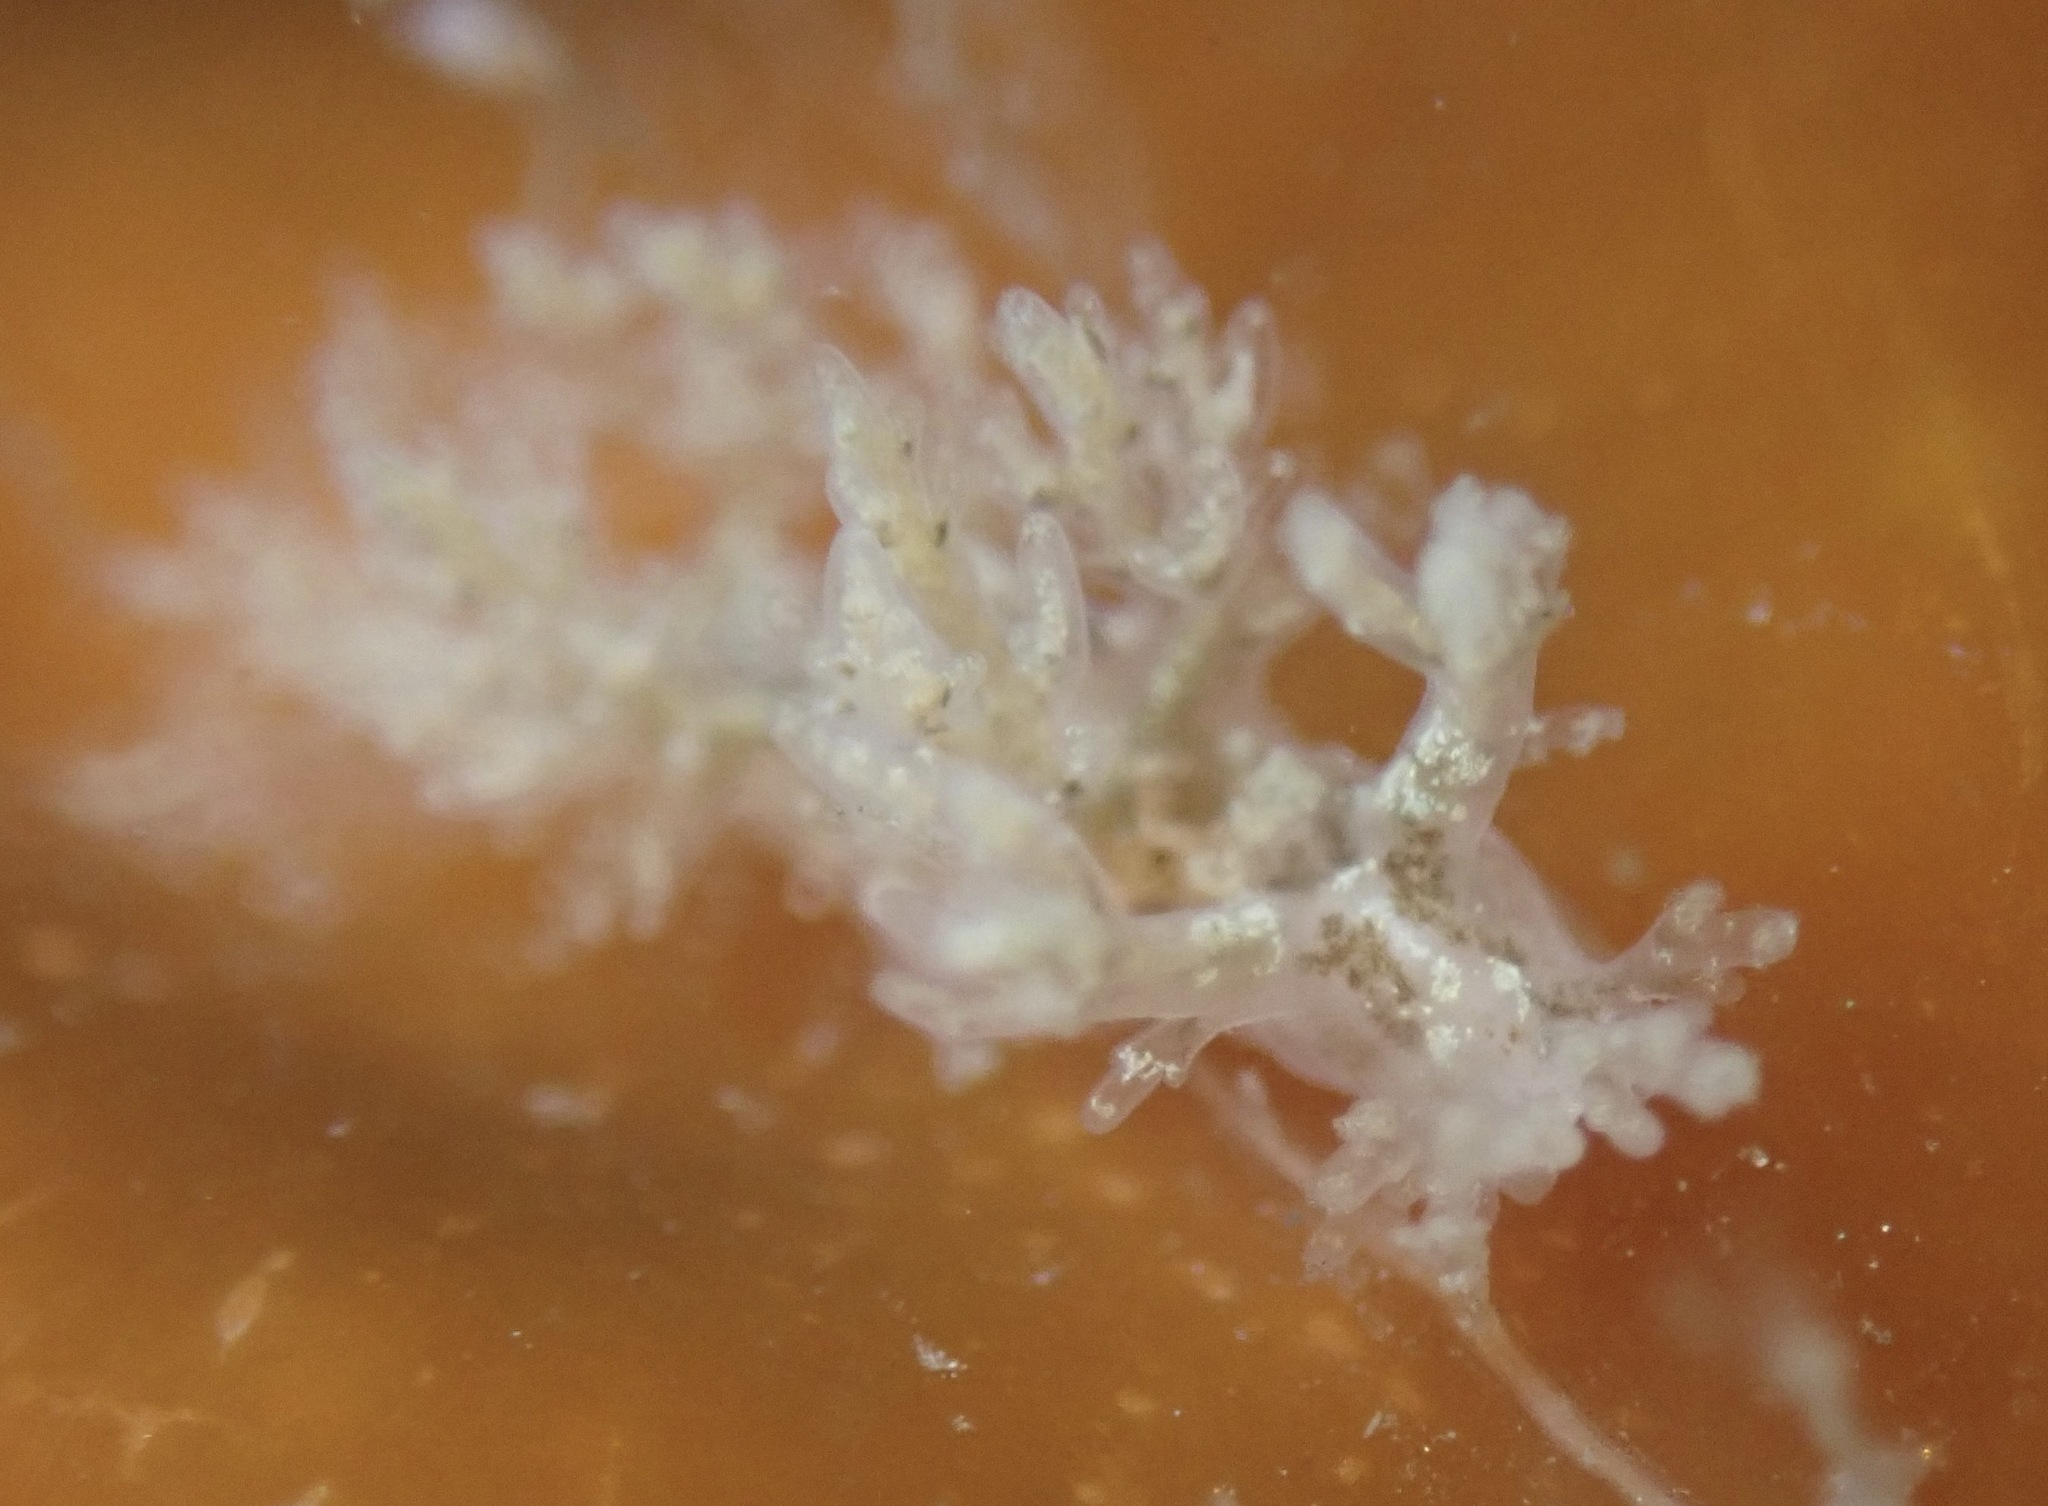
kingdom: Animalia
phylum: Mollusca
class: Gastropoda
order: Nudibranchia
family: Dendronotidae
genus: Dendronotus
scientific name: Dendronotus venustus
